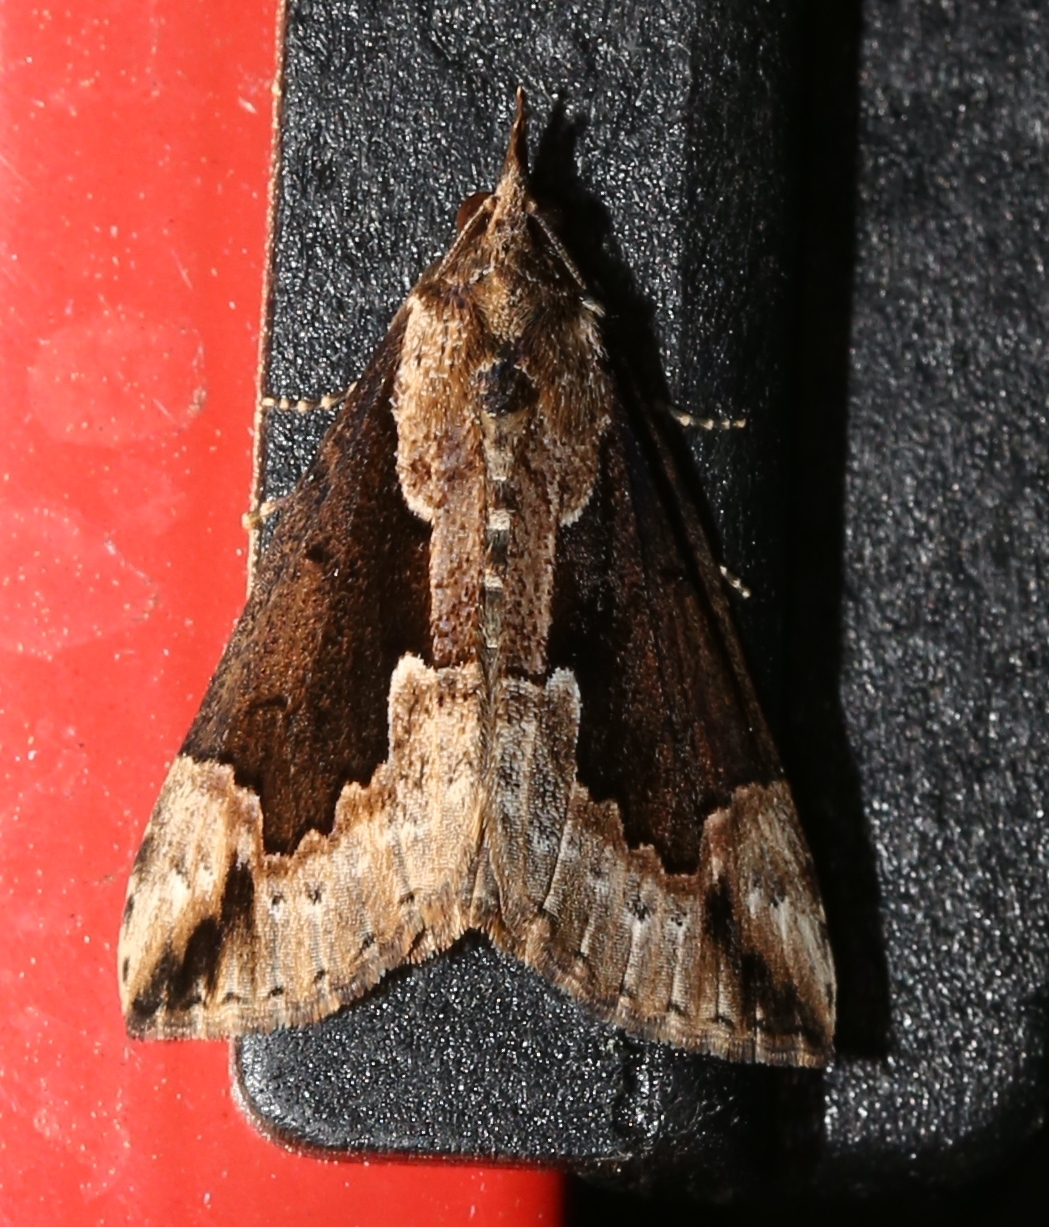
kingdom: Animalia
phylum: Arthropoda
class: Insecta
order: Lepidoptera
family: Erebidae
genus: Hypena
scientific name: Hypena baltimoralis
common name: Baltimore snout
